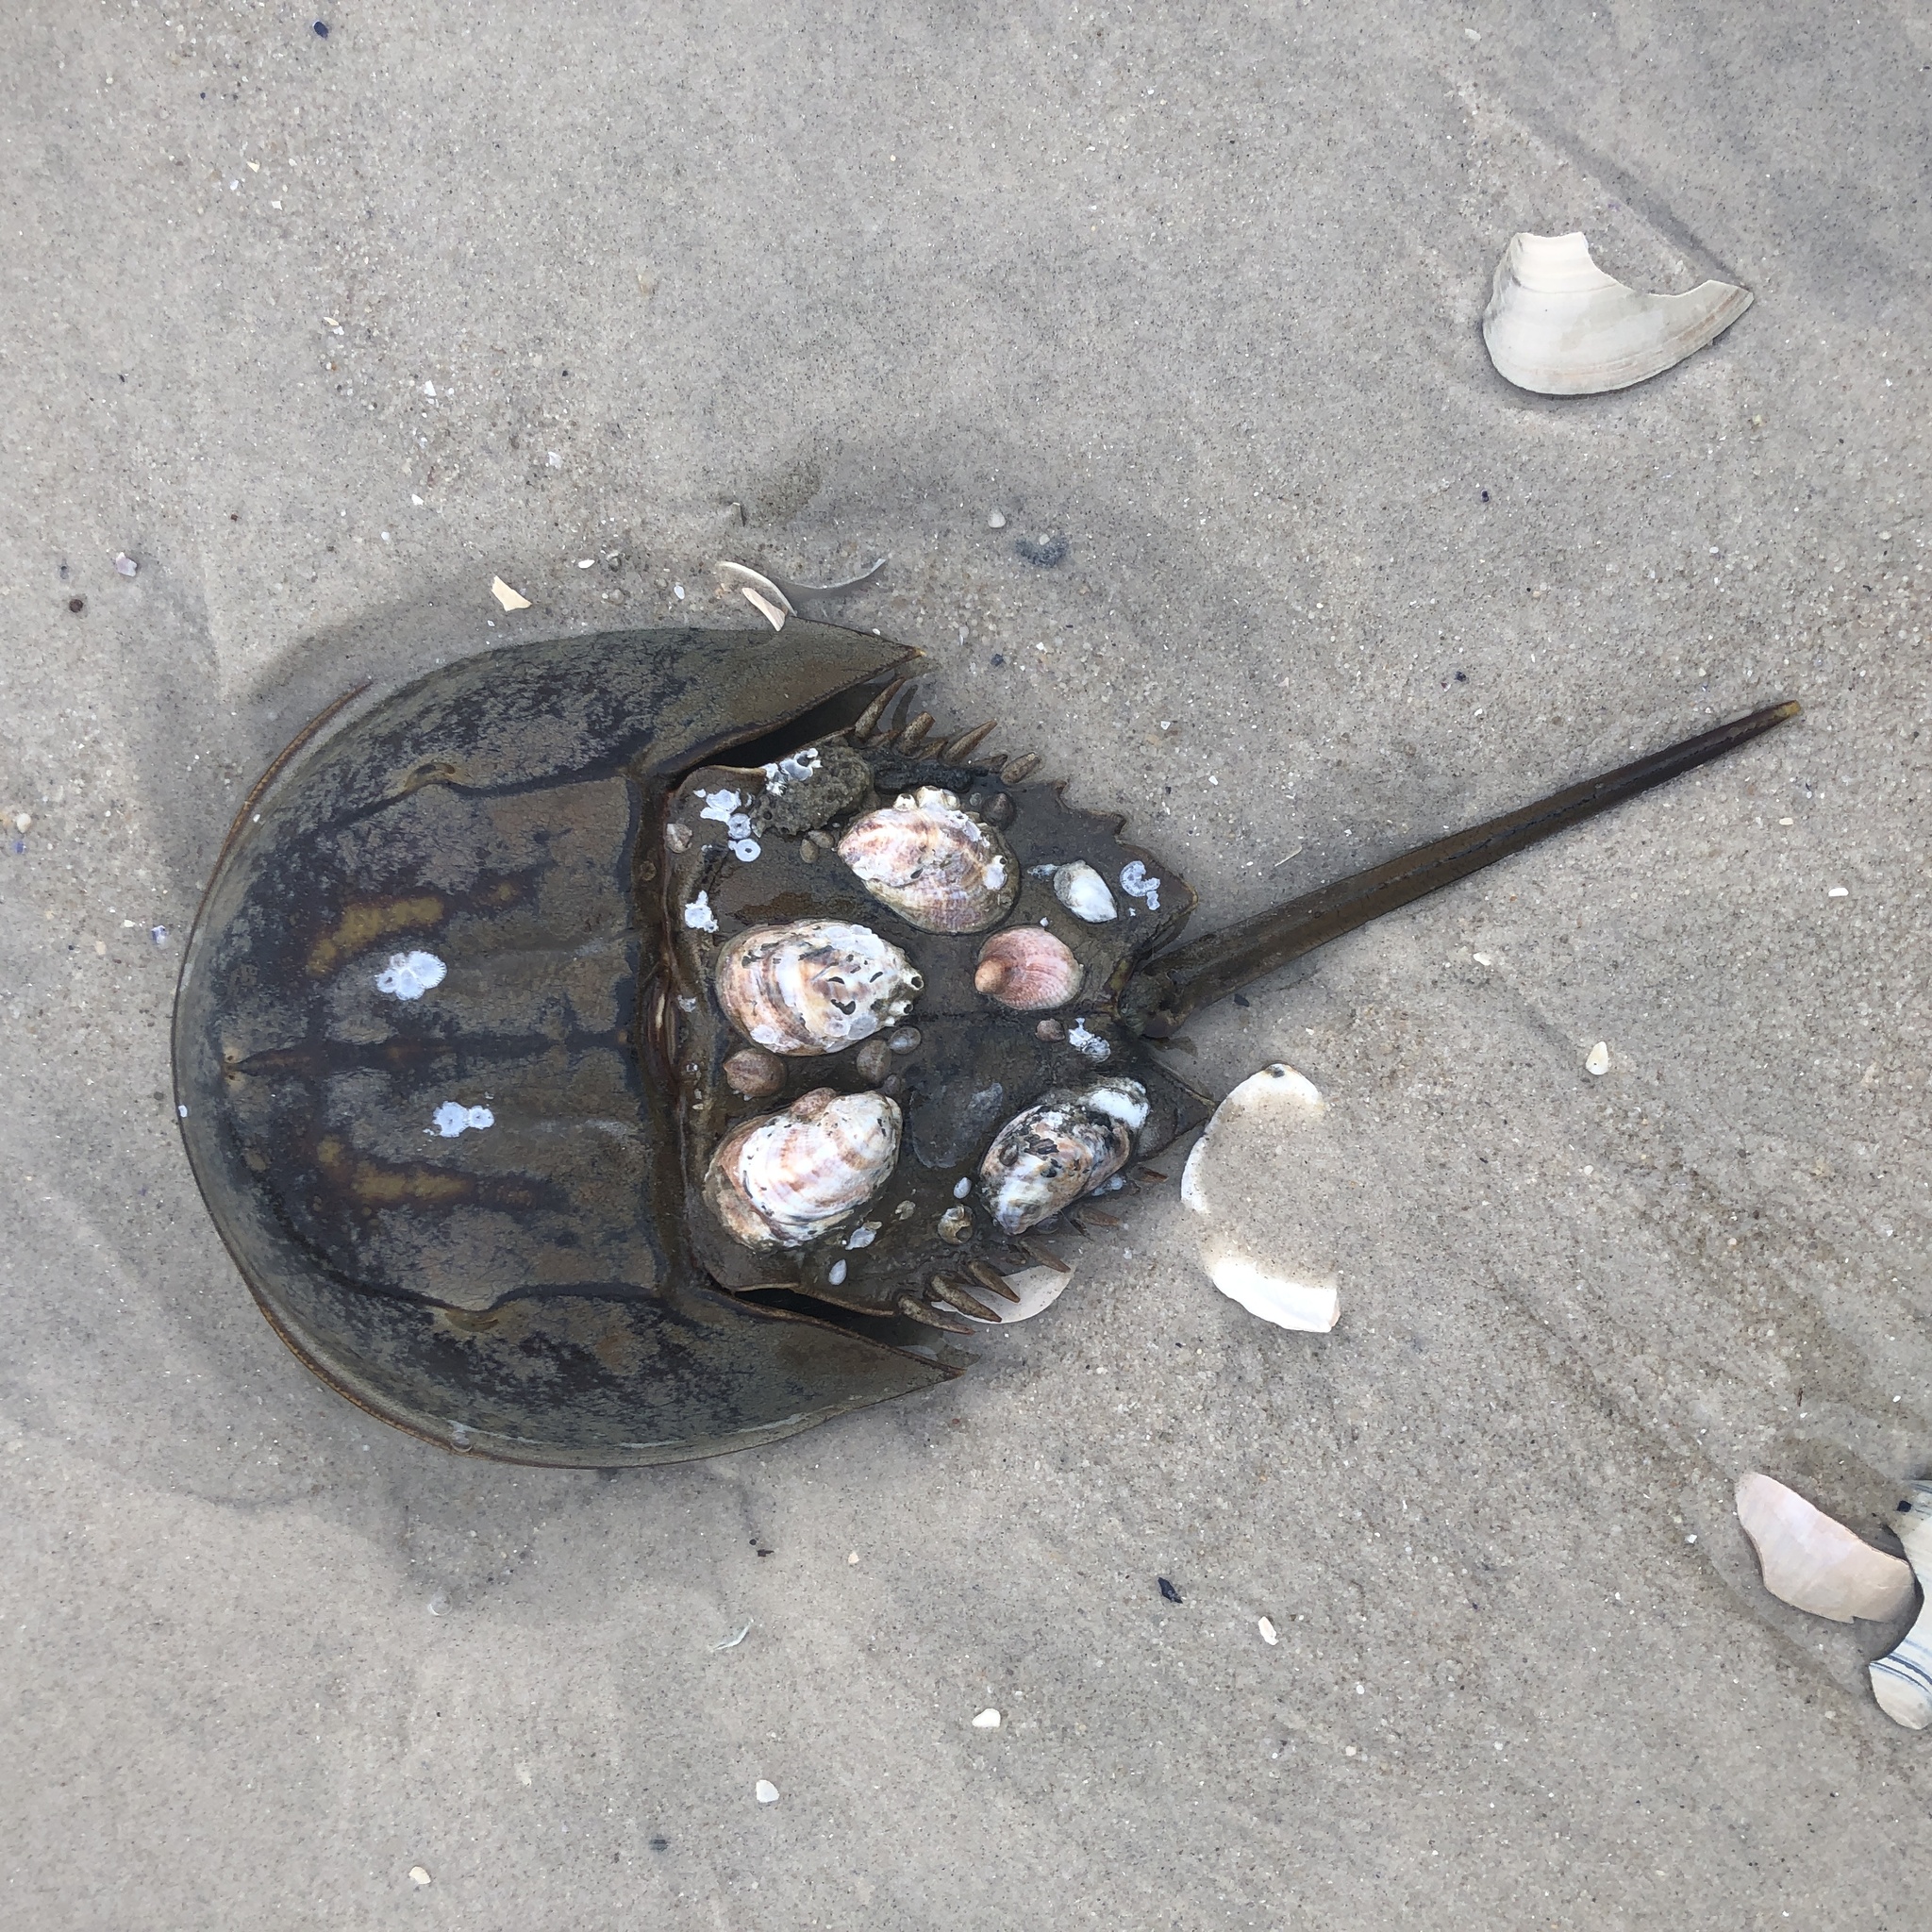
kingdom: Animalia
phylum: Arthropoda
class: Merostomata
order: Xiphosurida
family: Limulidae
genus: Limulus
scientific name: Limulus polyphemus
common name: Horseshoe crab
